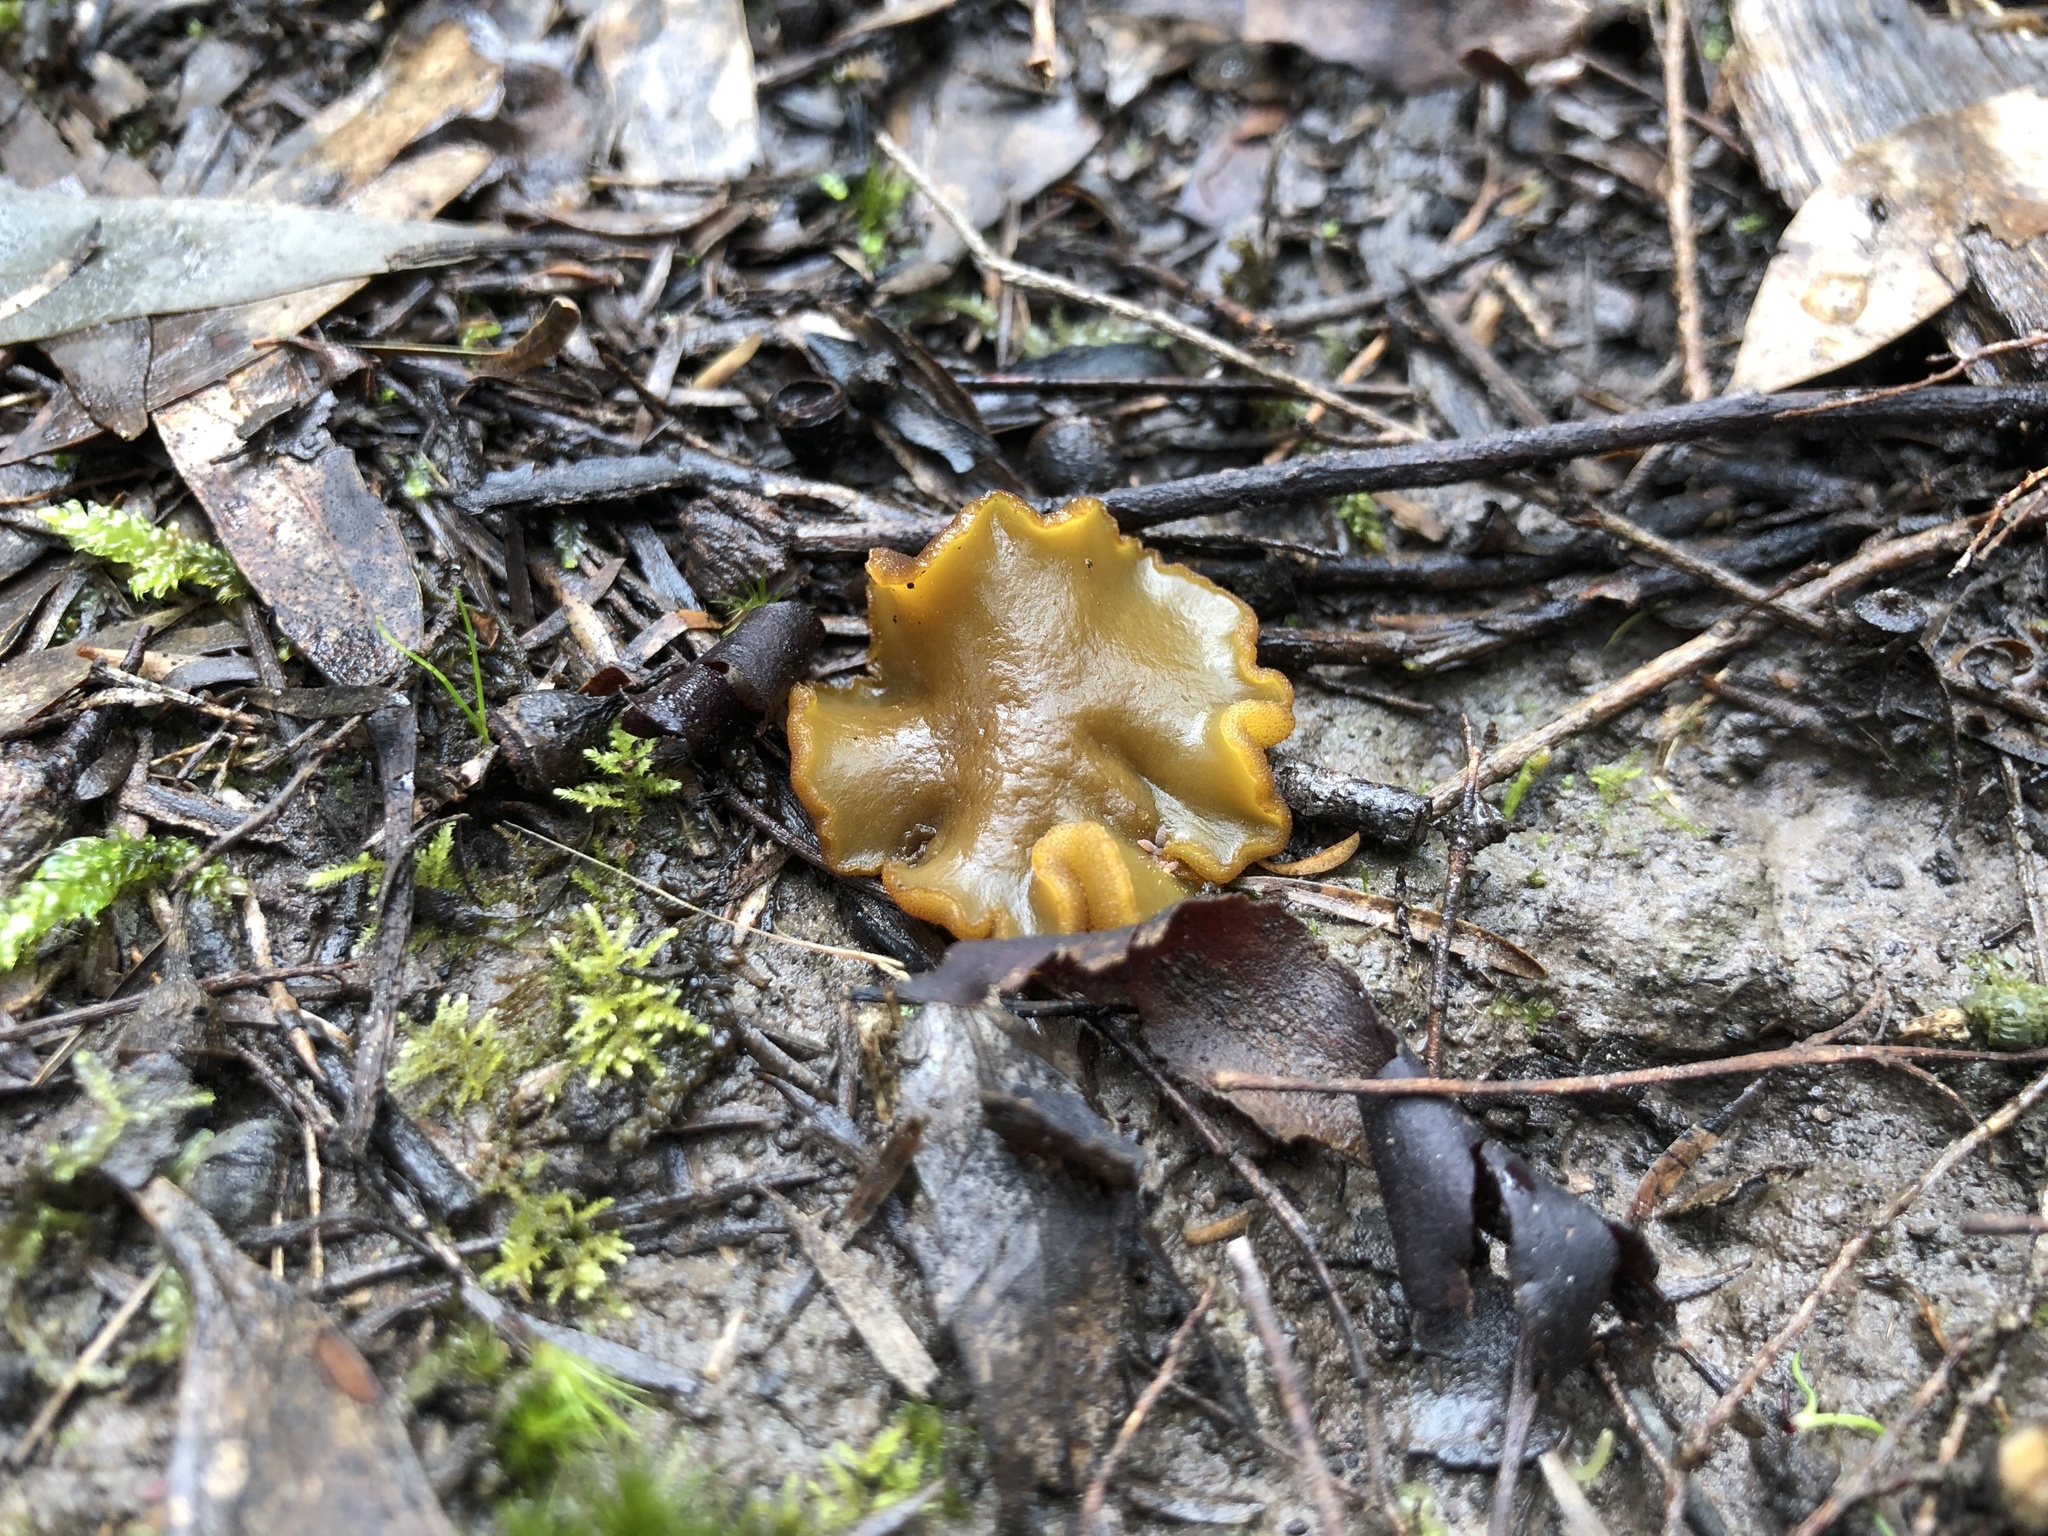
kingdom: Fungi
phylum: Ascomycota
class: Pezizomycetes
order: Pezizales
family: Pyronemataceae
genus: Aleurina
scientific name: Aleurina ferruginea
